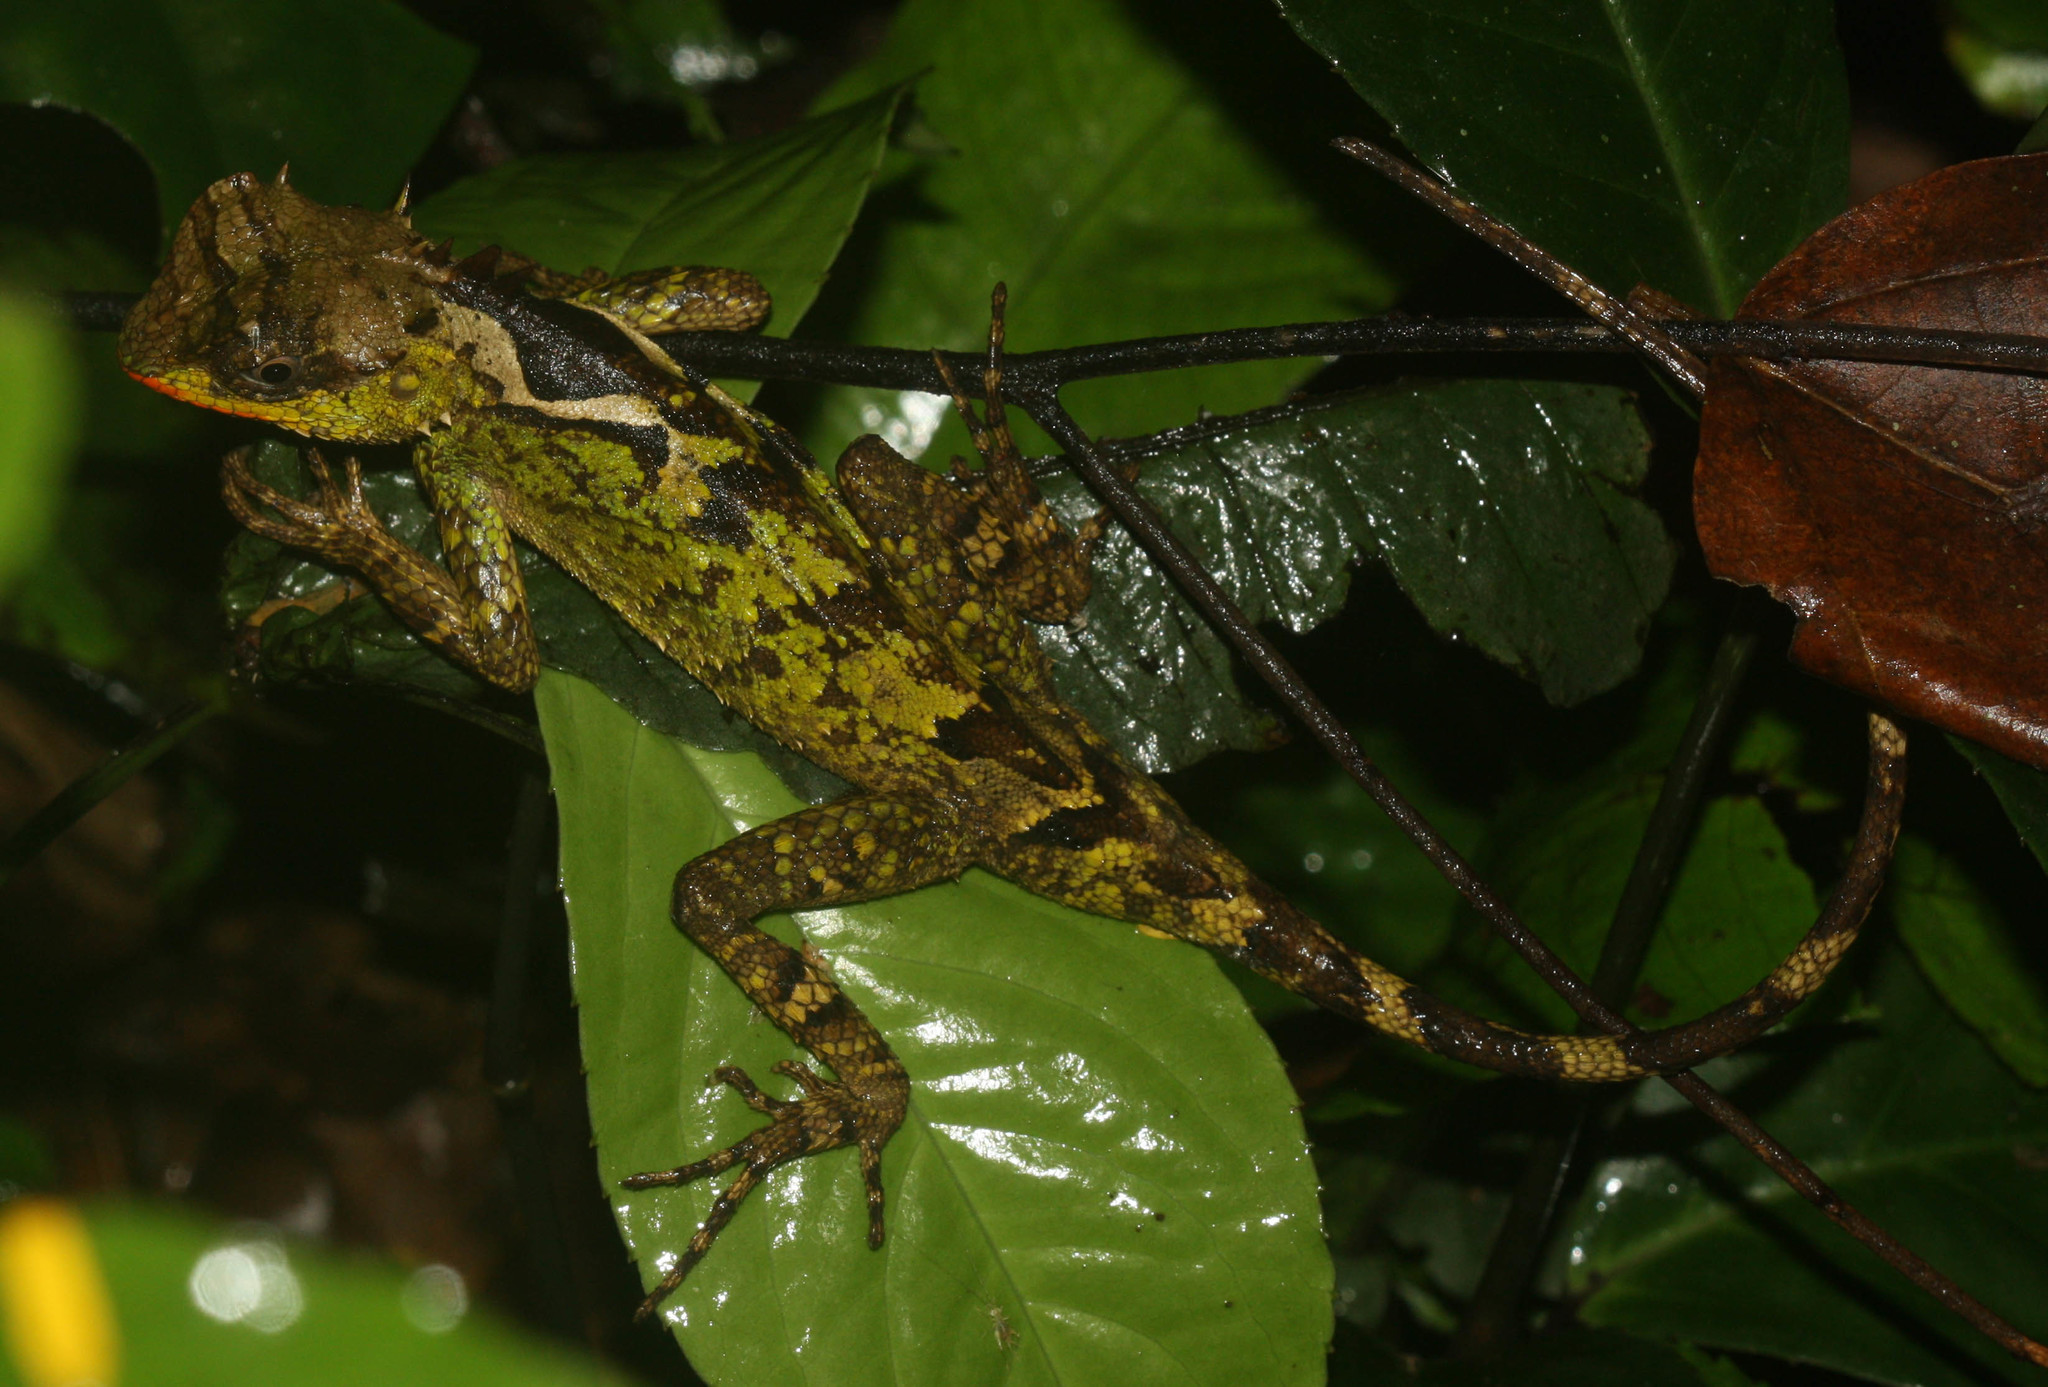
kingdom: Animalia
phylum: Chordata
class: Squamata
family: Agamidae
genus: Acanthosaura
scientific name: Acanthosaura lepidogaster
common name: Brown pricklenape
